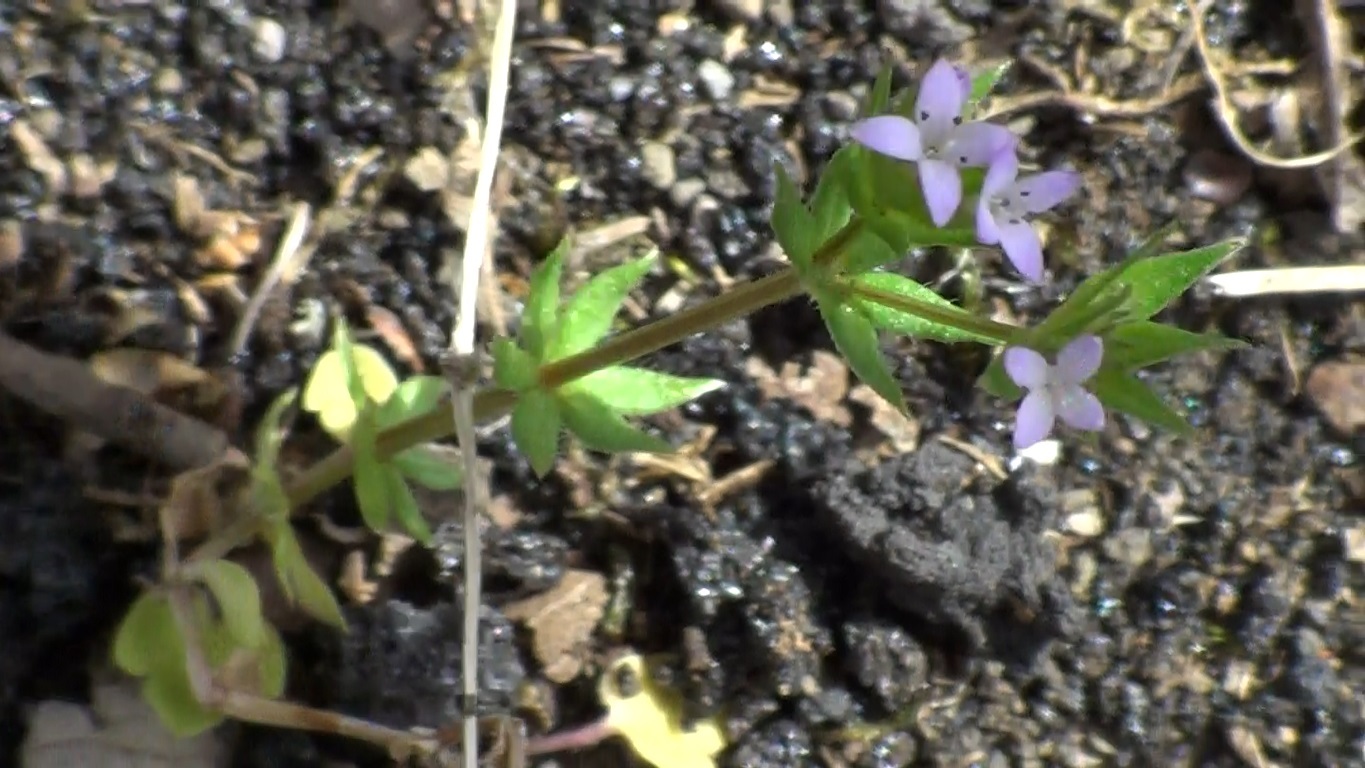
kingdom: Plantae
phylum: Tracheophyta
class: Magnoliopsida
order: Gentianales
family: Rubiaceae
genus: Sherardia
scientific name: Sherardia arvensis
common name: Field madder
